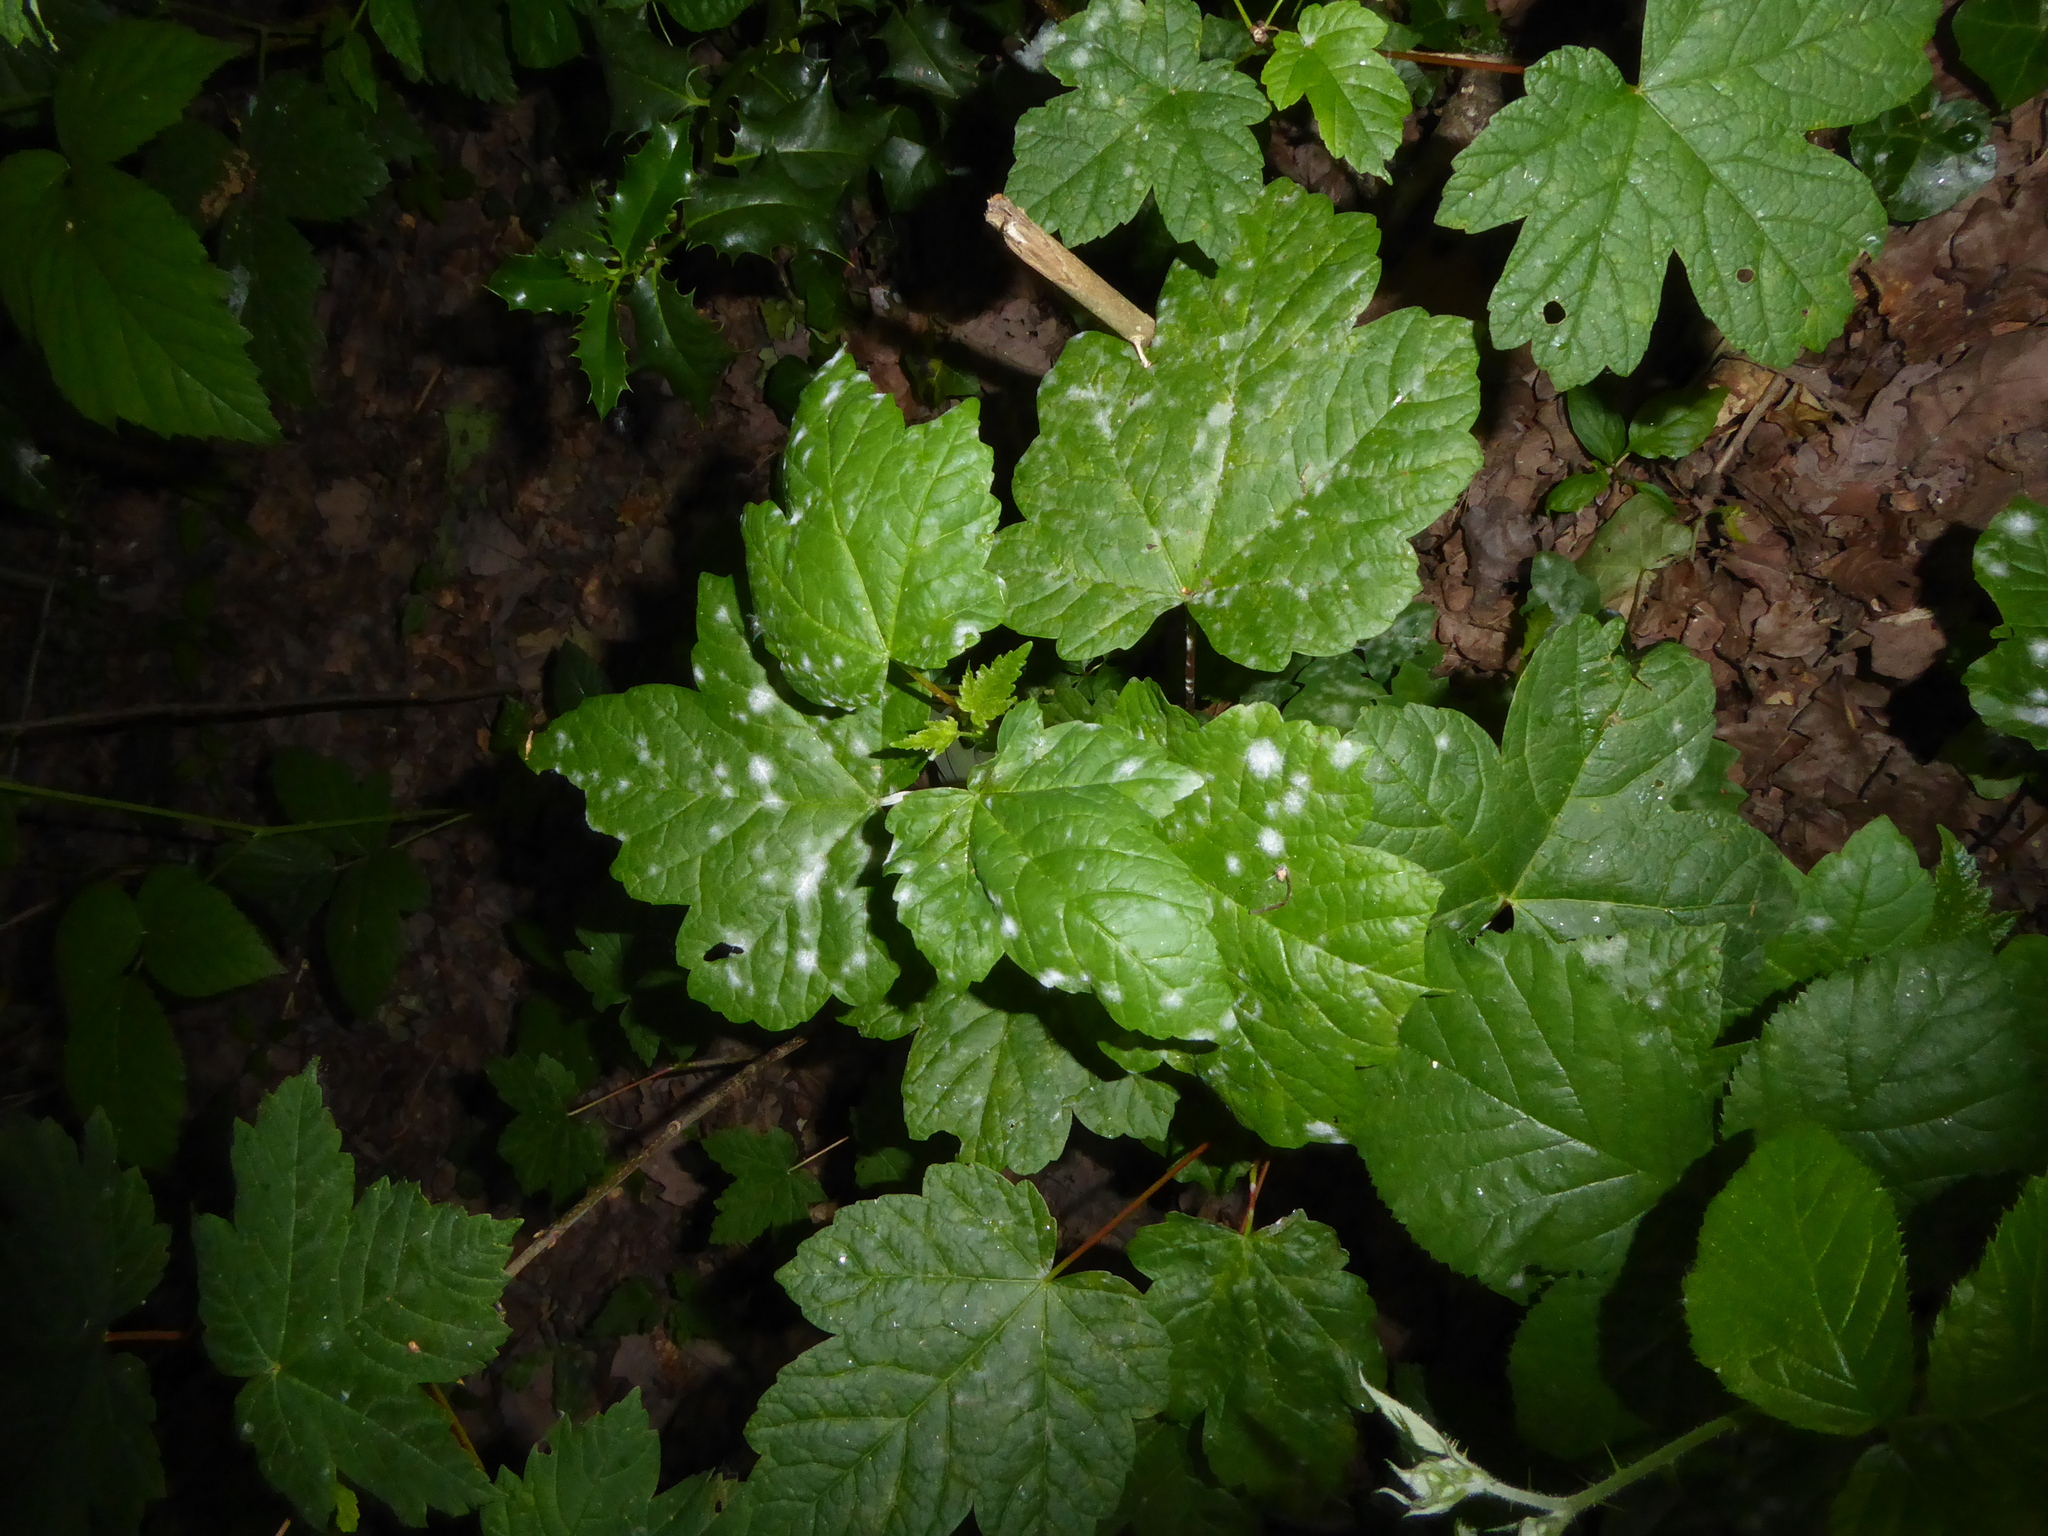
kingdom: Plantae
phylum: Tracheophyta
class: Magnoliopsida
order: Sapindales
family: Sapindaceae
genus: Acer
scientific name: Acer pseudoplatanus
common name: Sycamore
